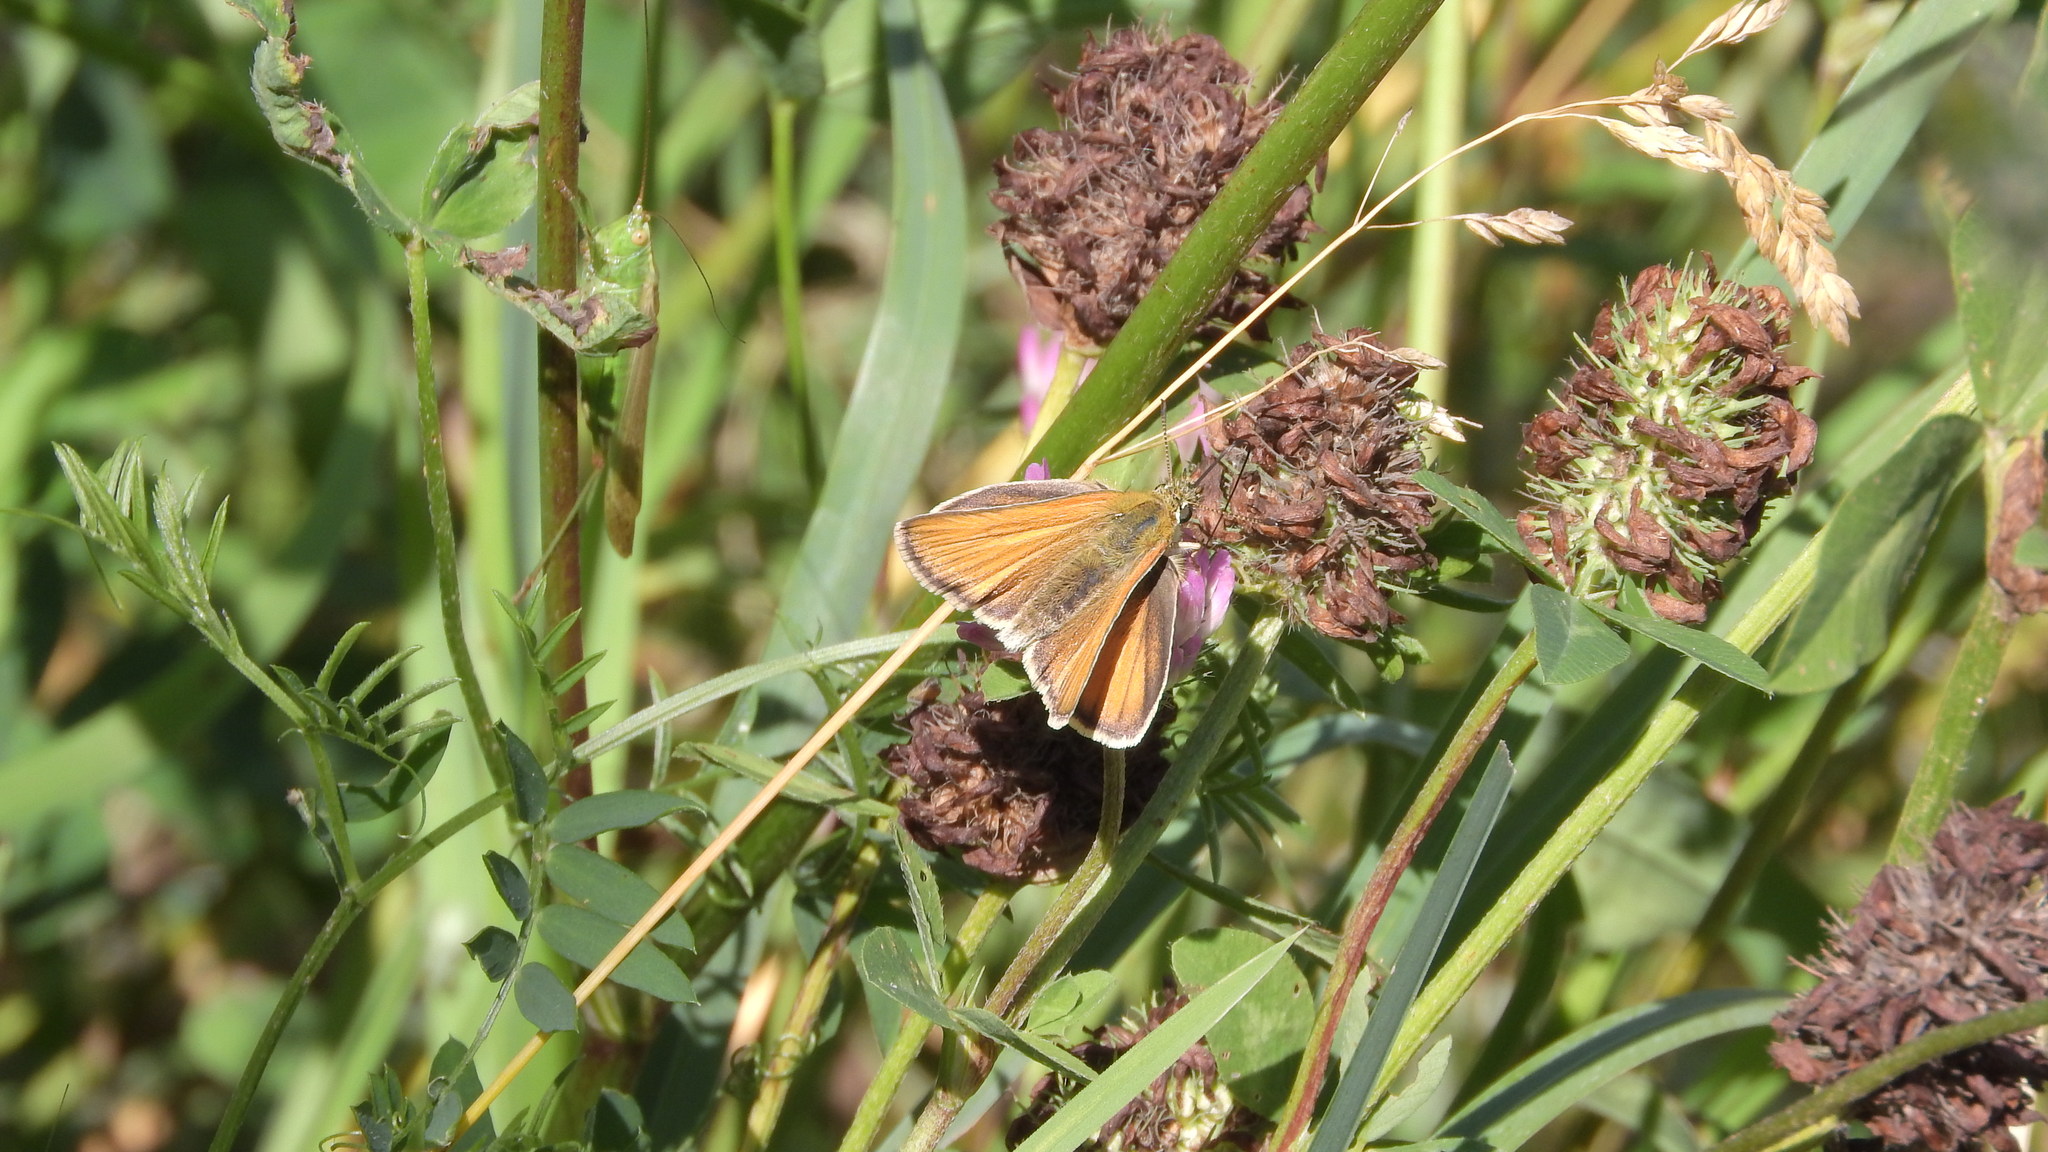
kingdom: Animalia
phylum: Arthropoda
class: Insecta
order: Lepidoptera
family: Hesperiidae
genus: Thymelicus
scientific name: Thymelicus lineola
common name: Essex skipper
